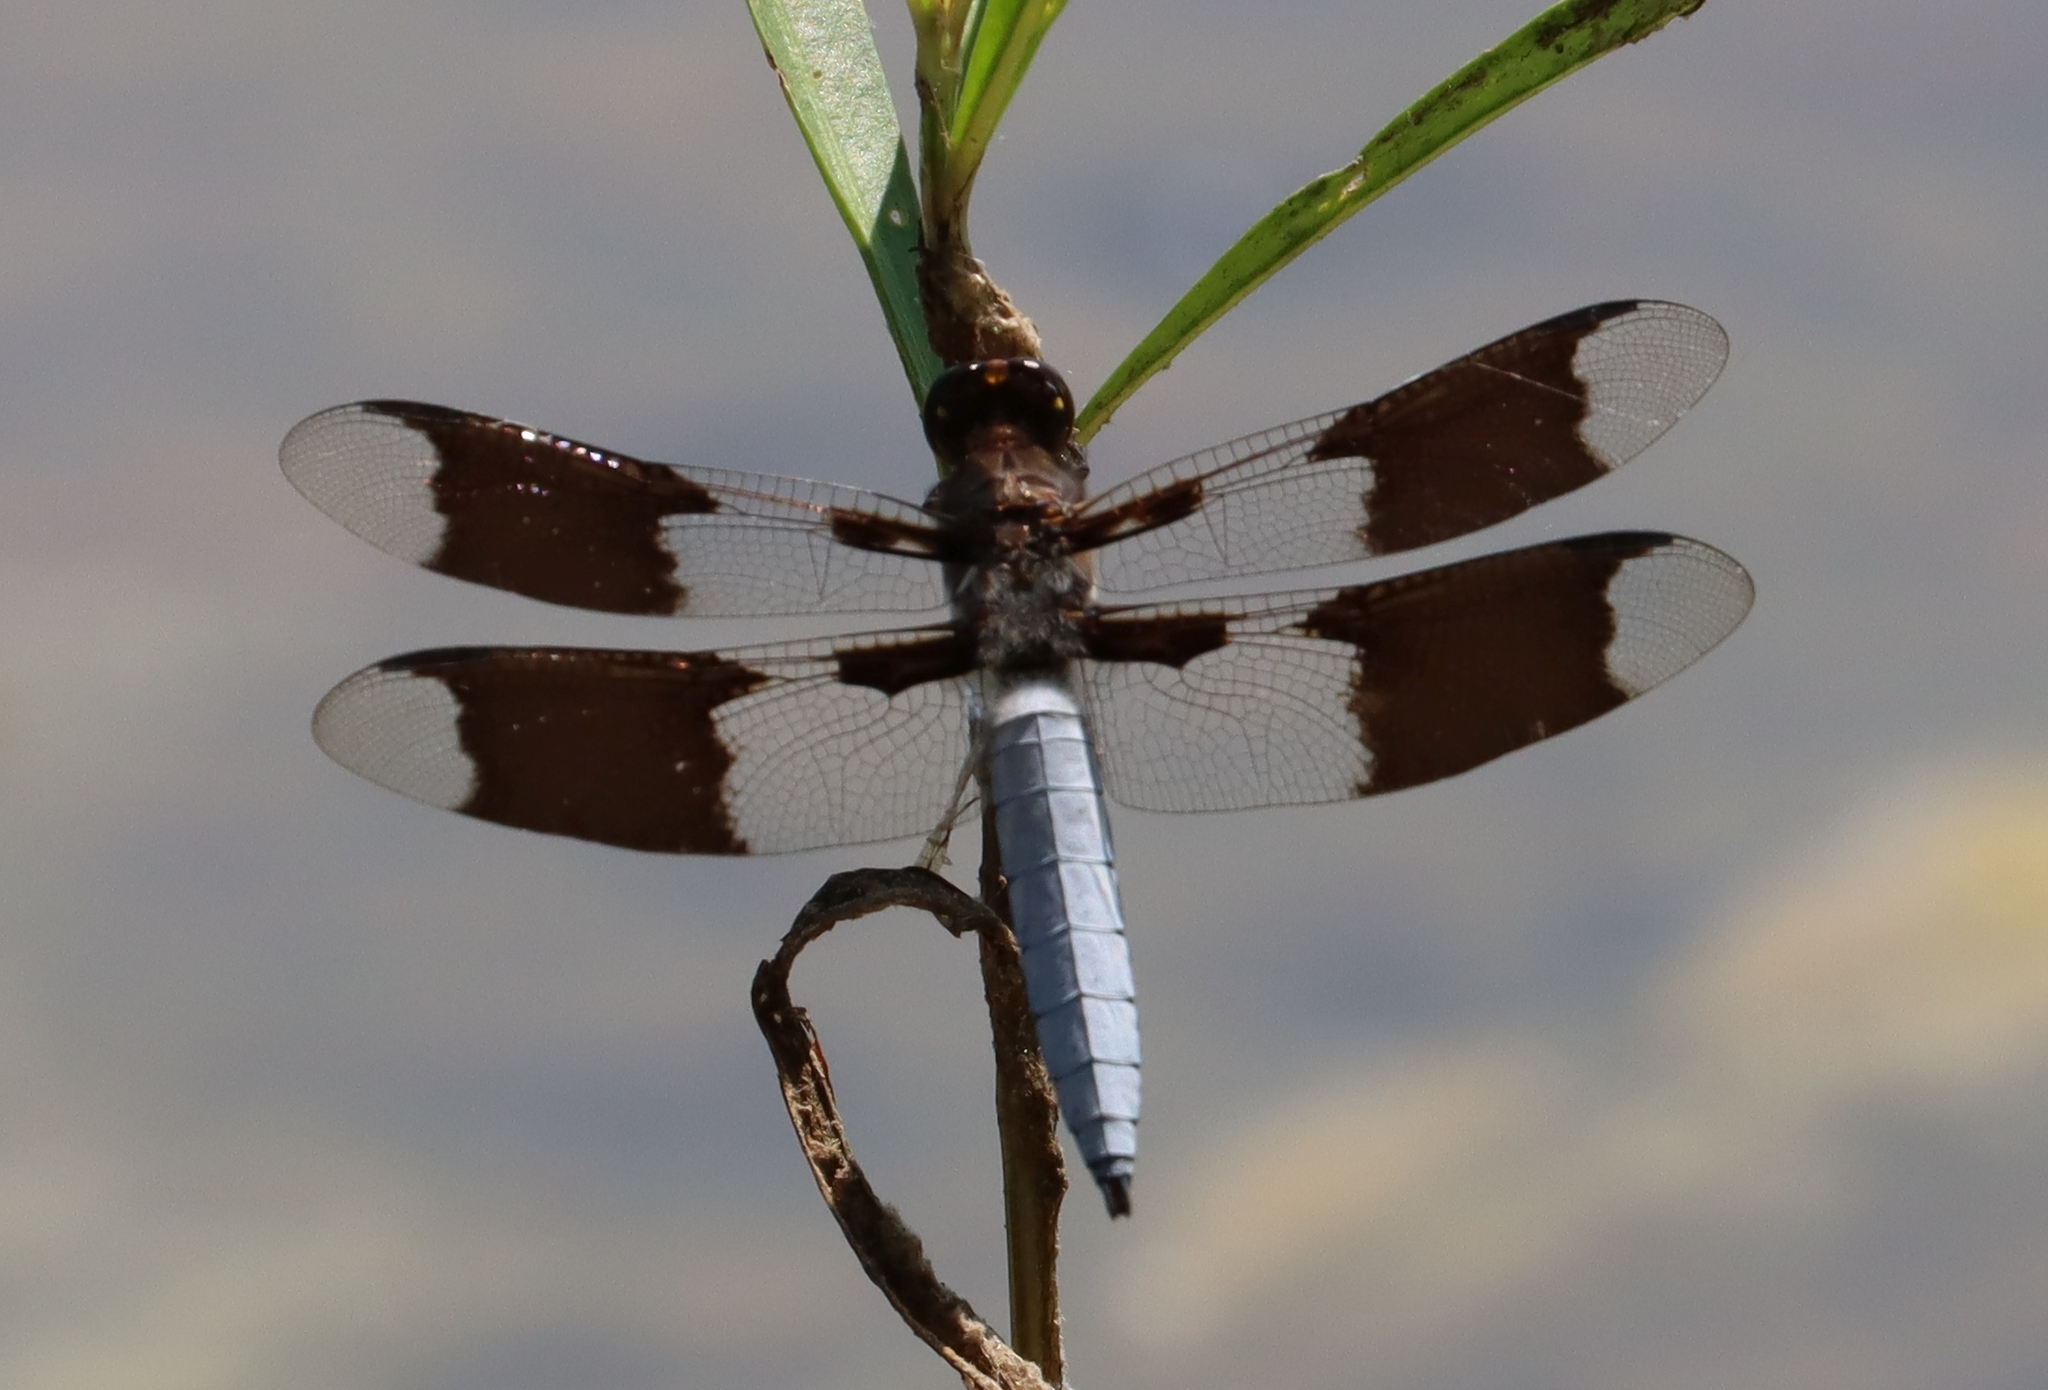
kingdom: Animalia
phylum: Arthropoda
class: Insecta
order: Odonata
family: Libellulidae
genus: Plathemis
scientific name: Plathemis lydia
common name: Common whitetail
